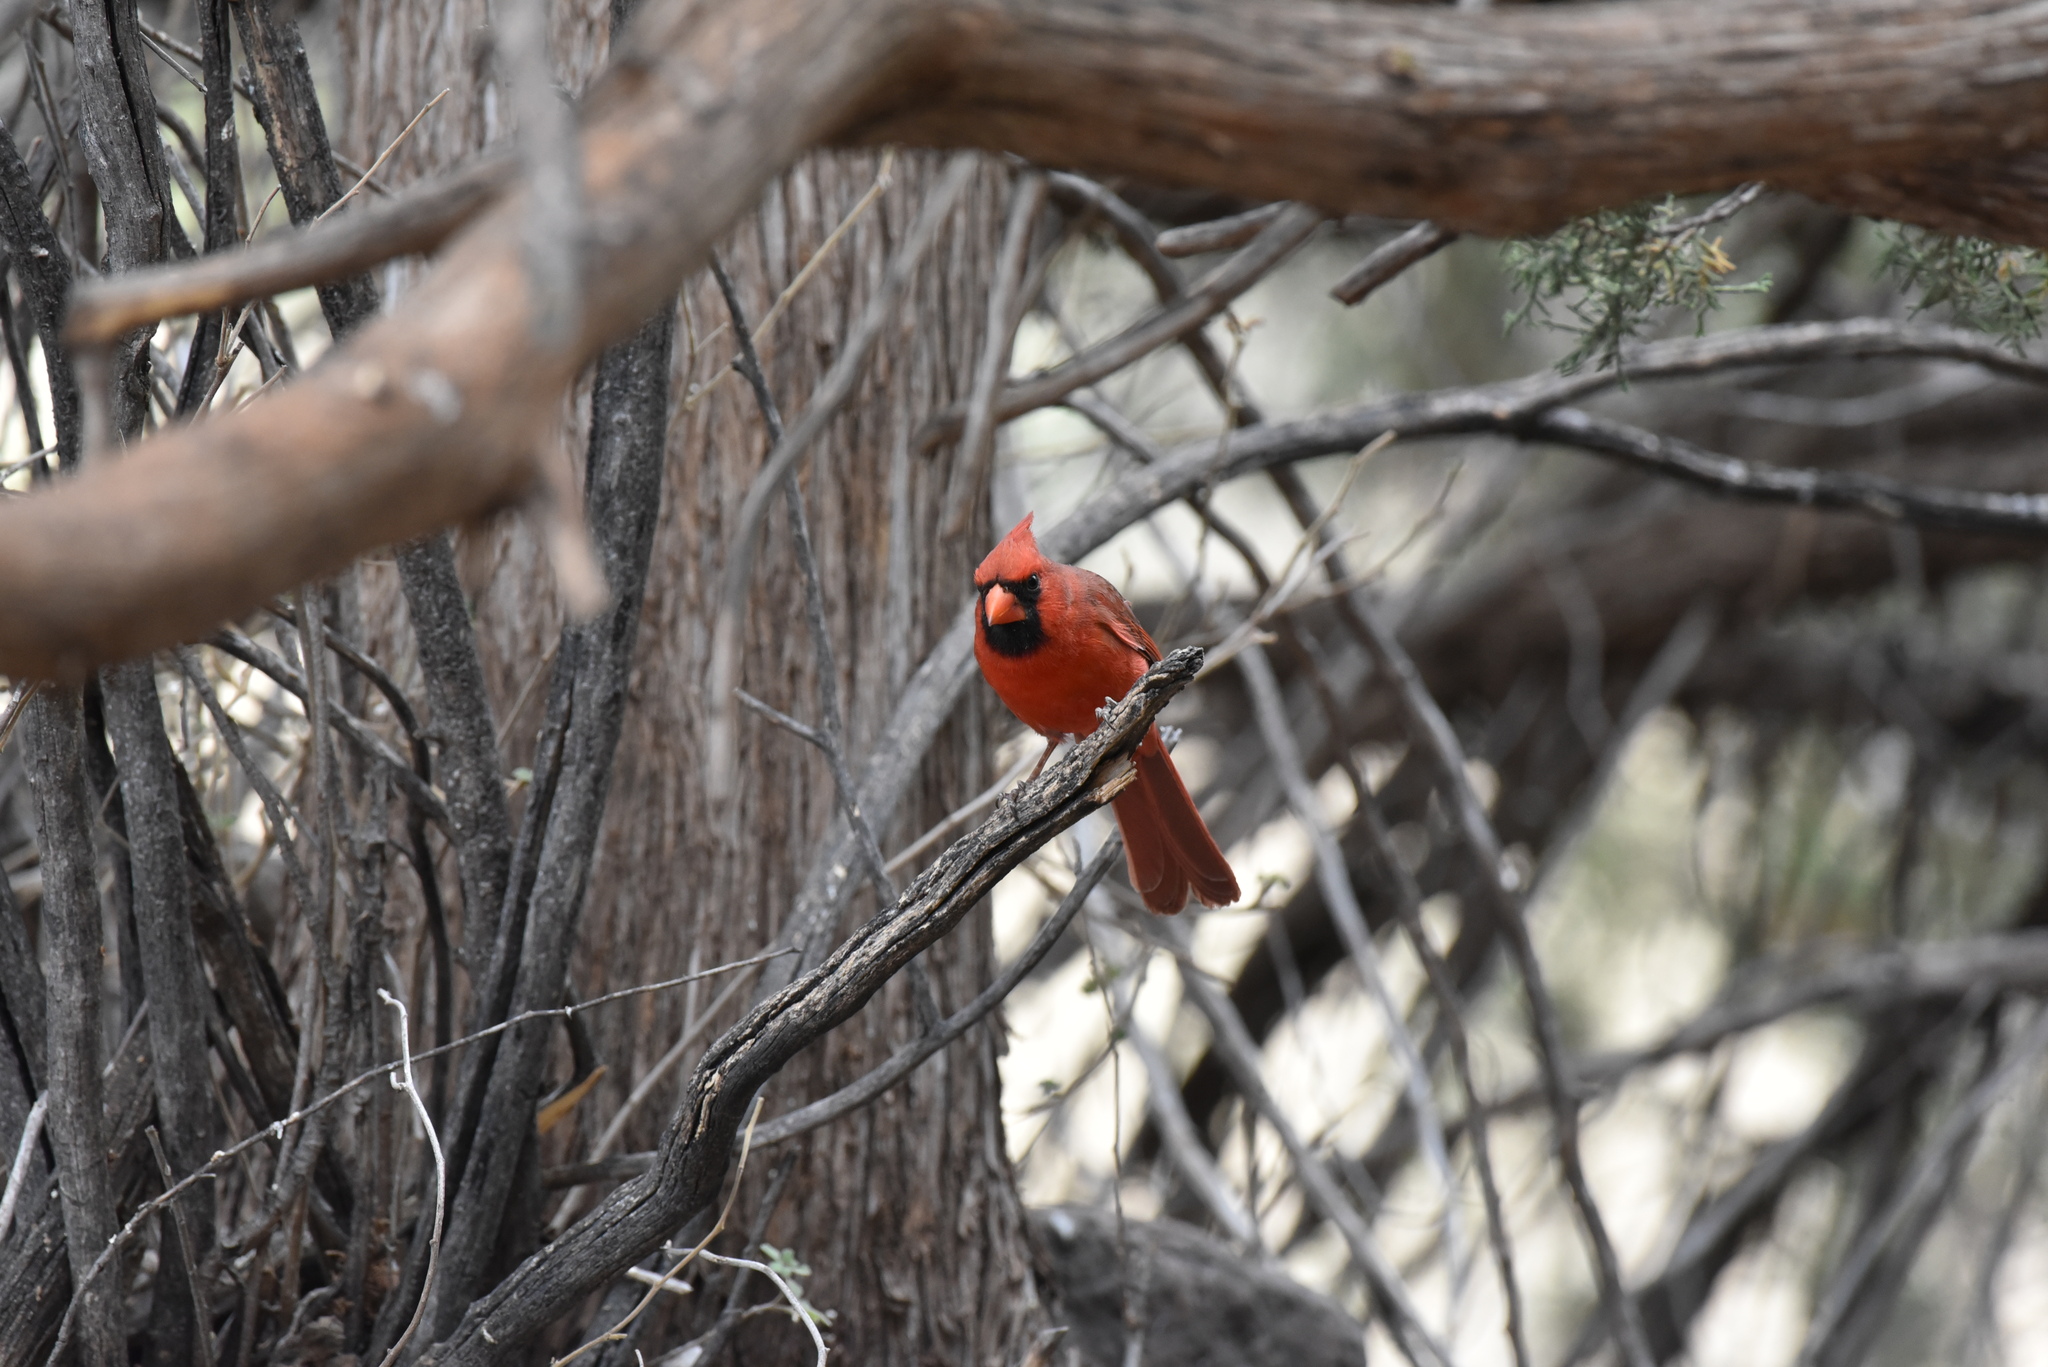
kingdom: Animalia
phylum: Chordata
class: Aves
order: Passeriformes
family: Cardinalidae
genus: Cardinalis
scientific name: Cardinalis cardinalis
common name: Northern cardinal
